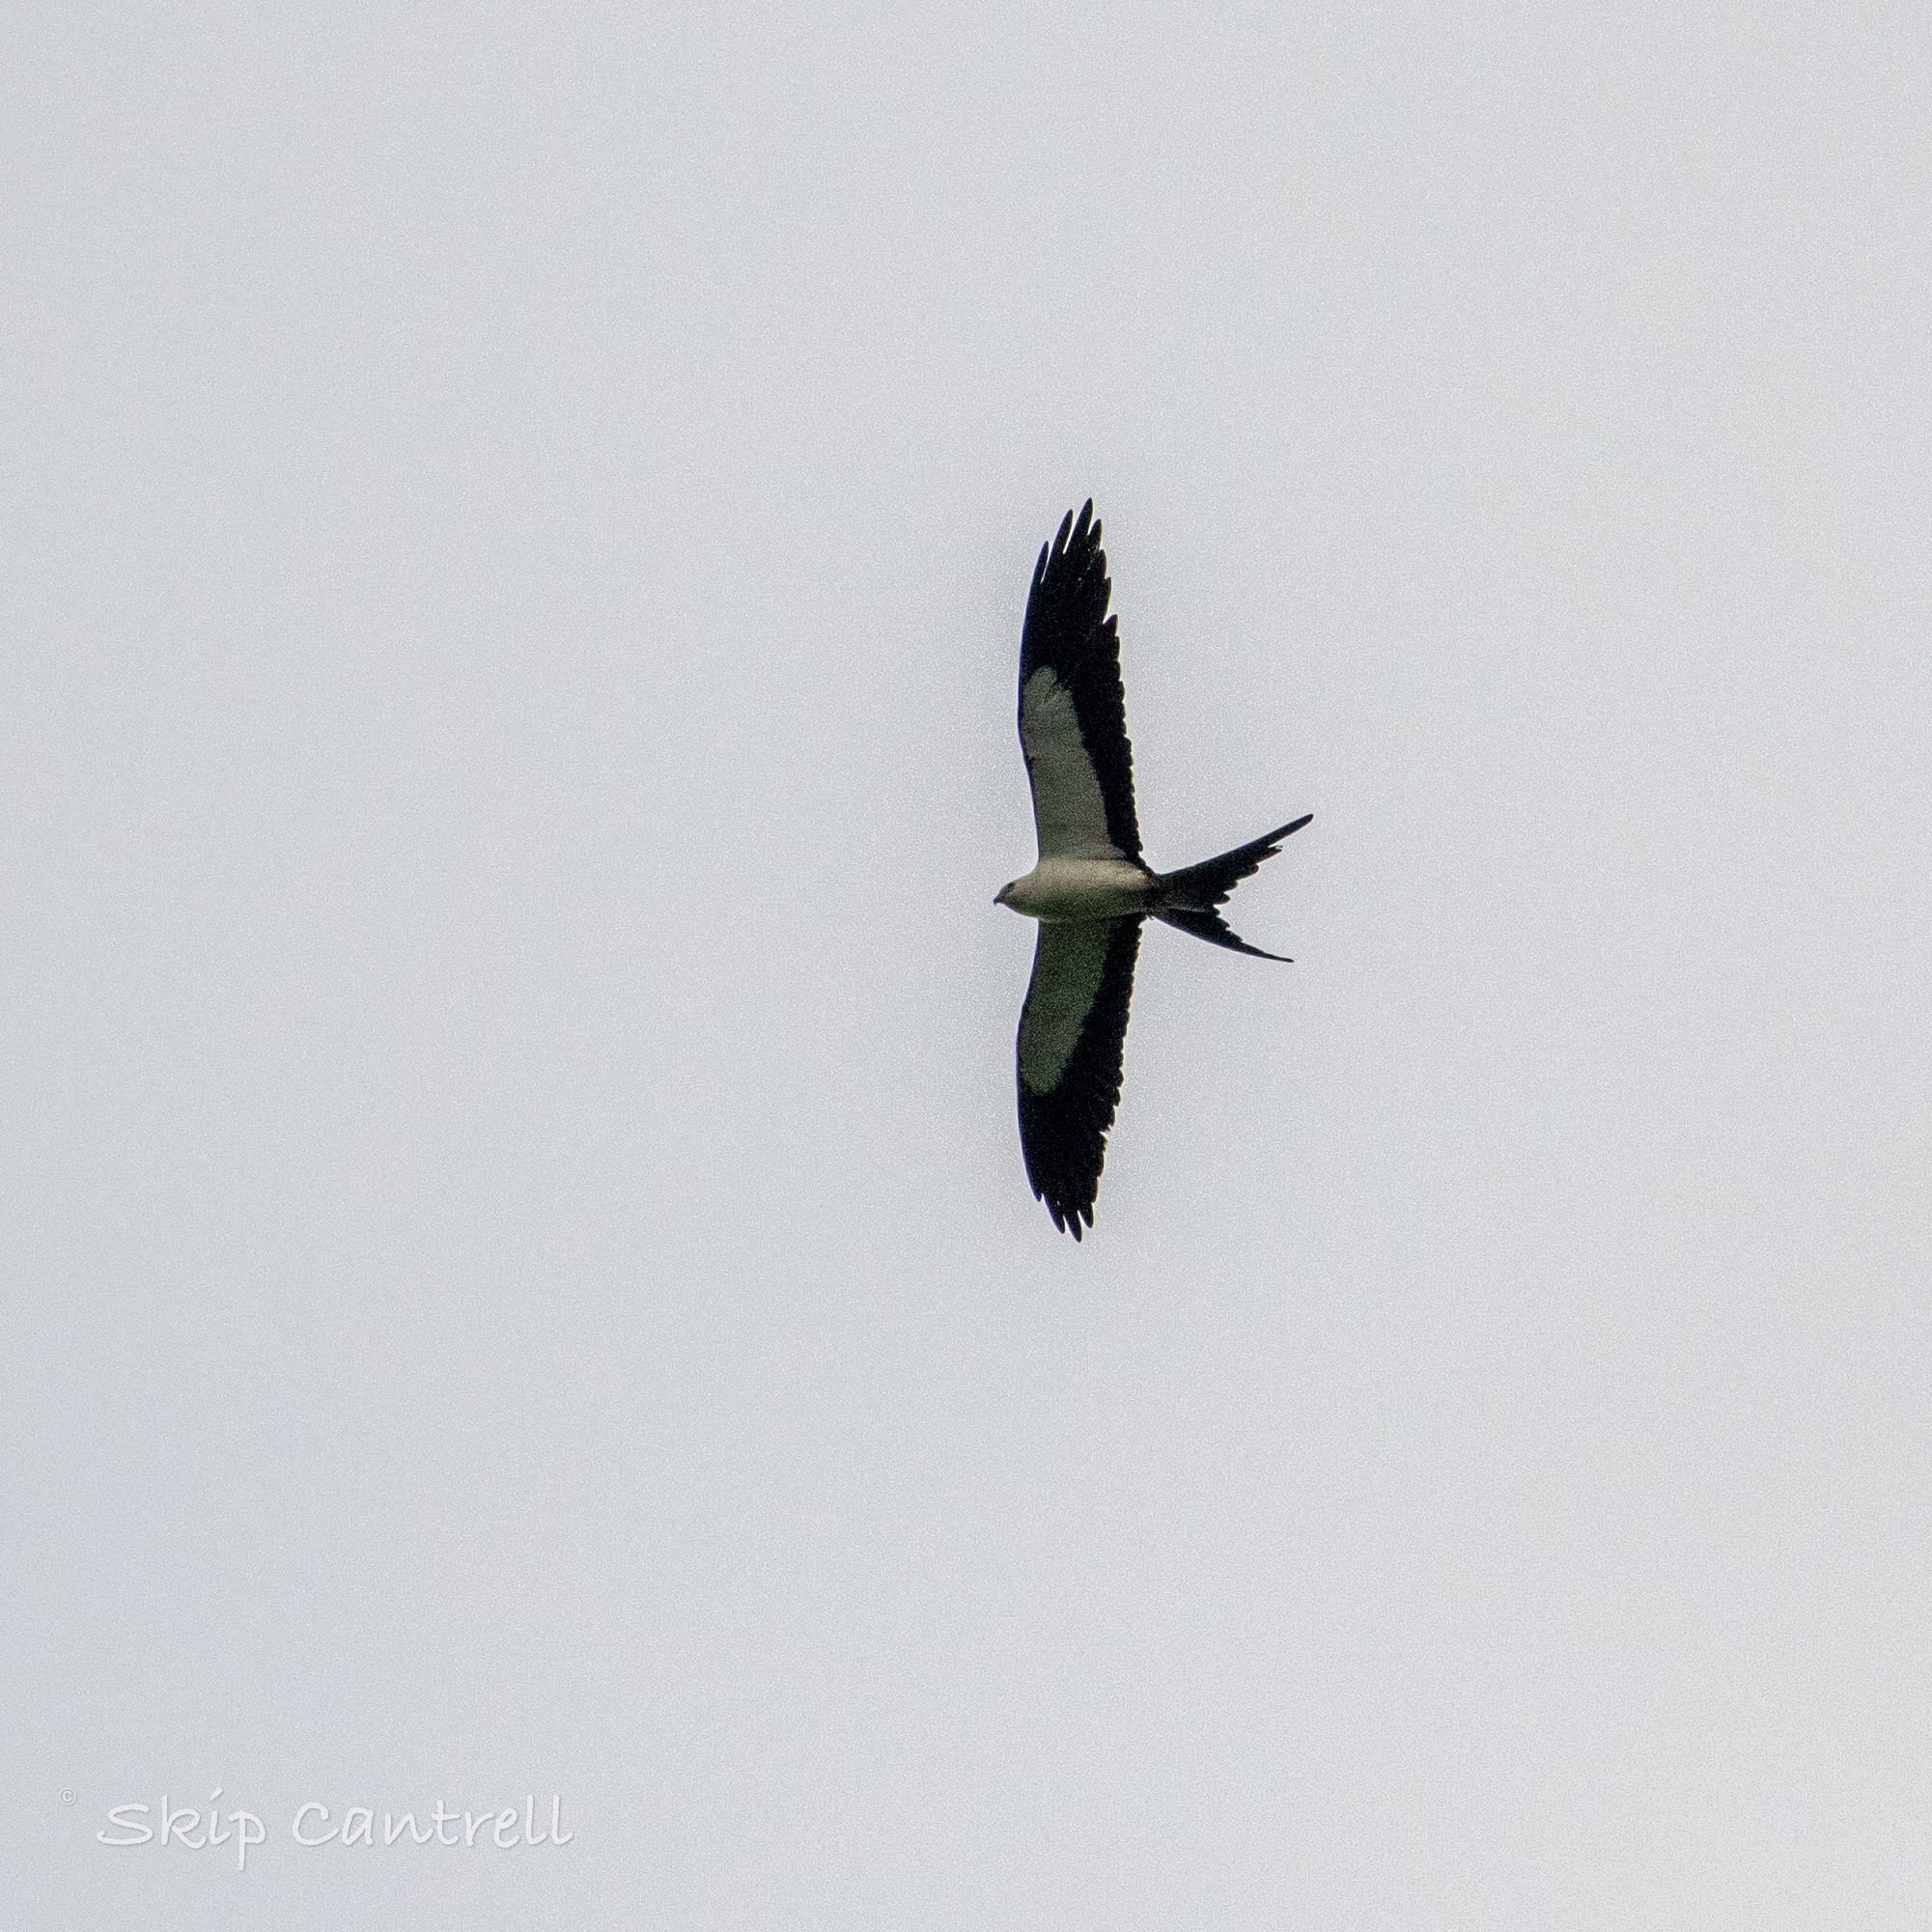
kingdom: Animalia
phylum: Chordata
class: Aves
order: Accipitriformes
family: Accipitridae
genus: Elanoides
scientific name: Elanoides forficatus
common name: Swallow-tailed kite
